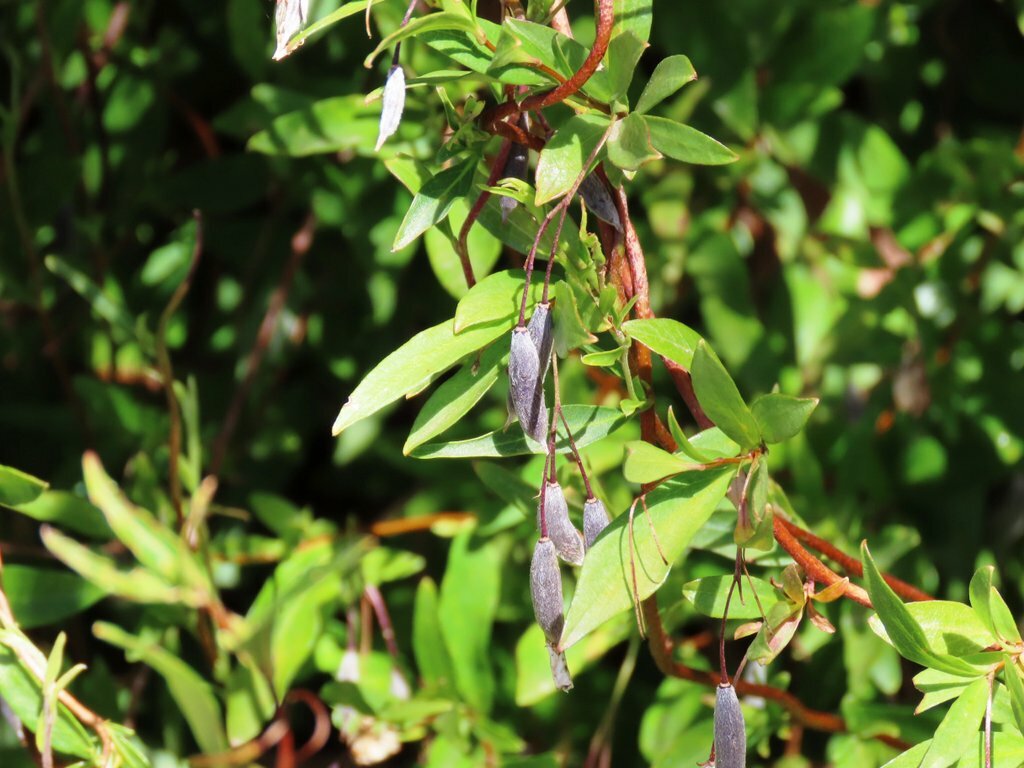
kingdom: Plantae
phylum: Tracheophyta
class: Magnoliopsida
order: Apiales
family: Pittosporaceae
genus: Billardiera
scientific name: Billardiera fusiformis
